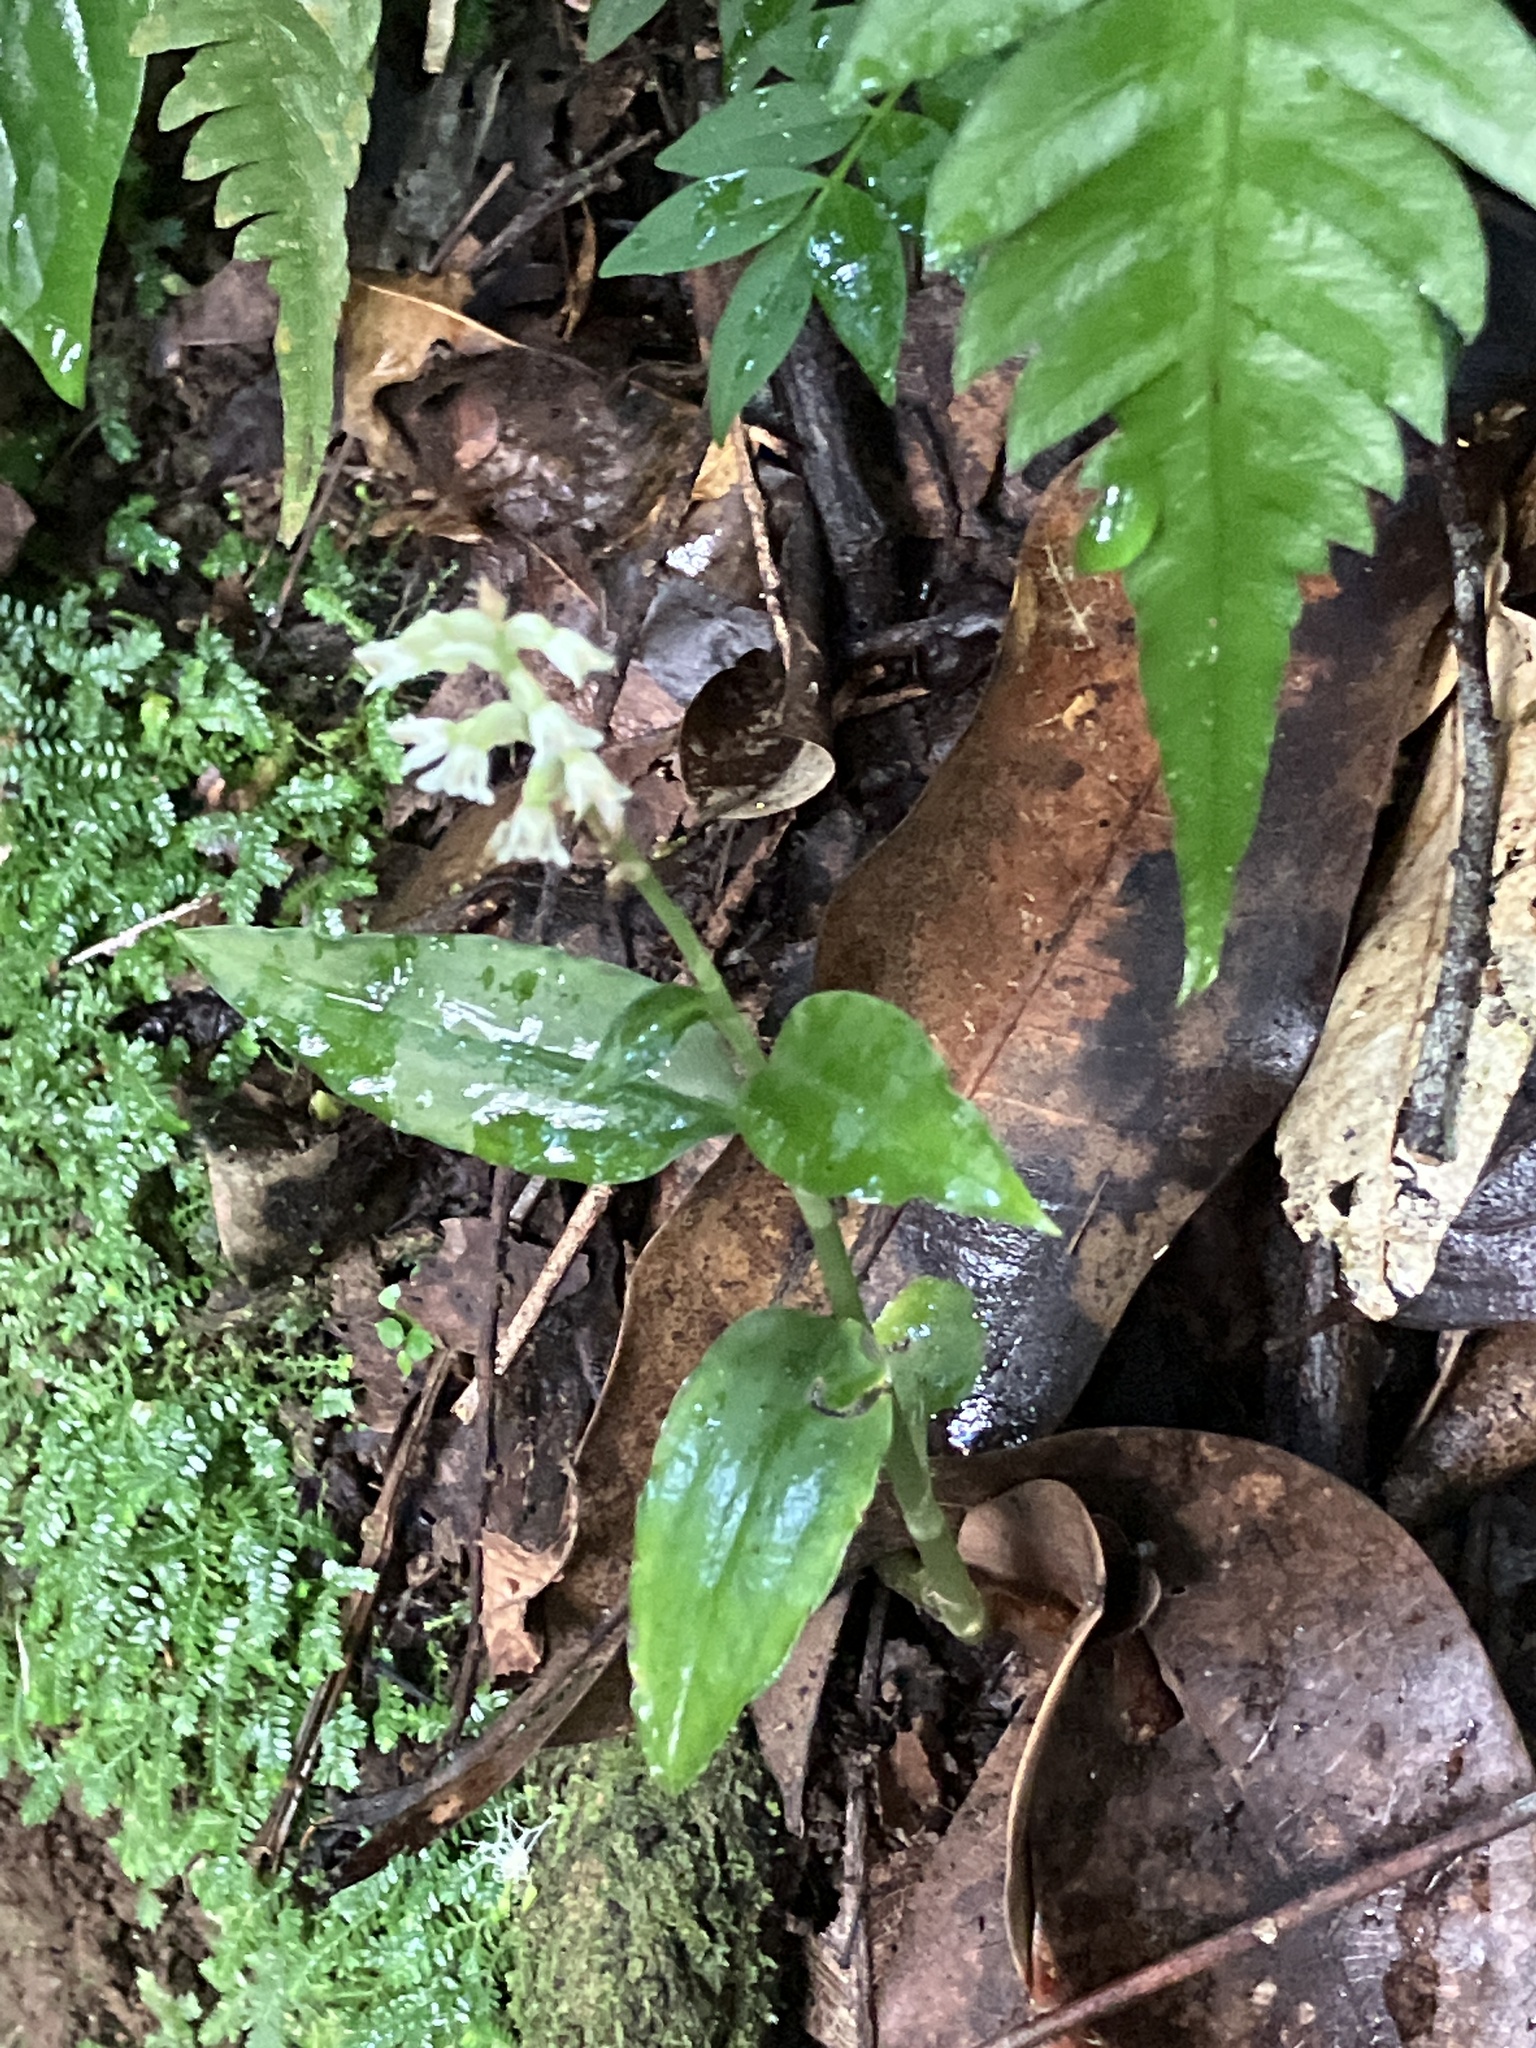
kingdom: Plantae
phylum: Tracheophyta
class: Liliopsida
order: Asparagales
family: Orchidaceae
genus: Aspidogyne
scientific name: Aspidogyne querceticola
